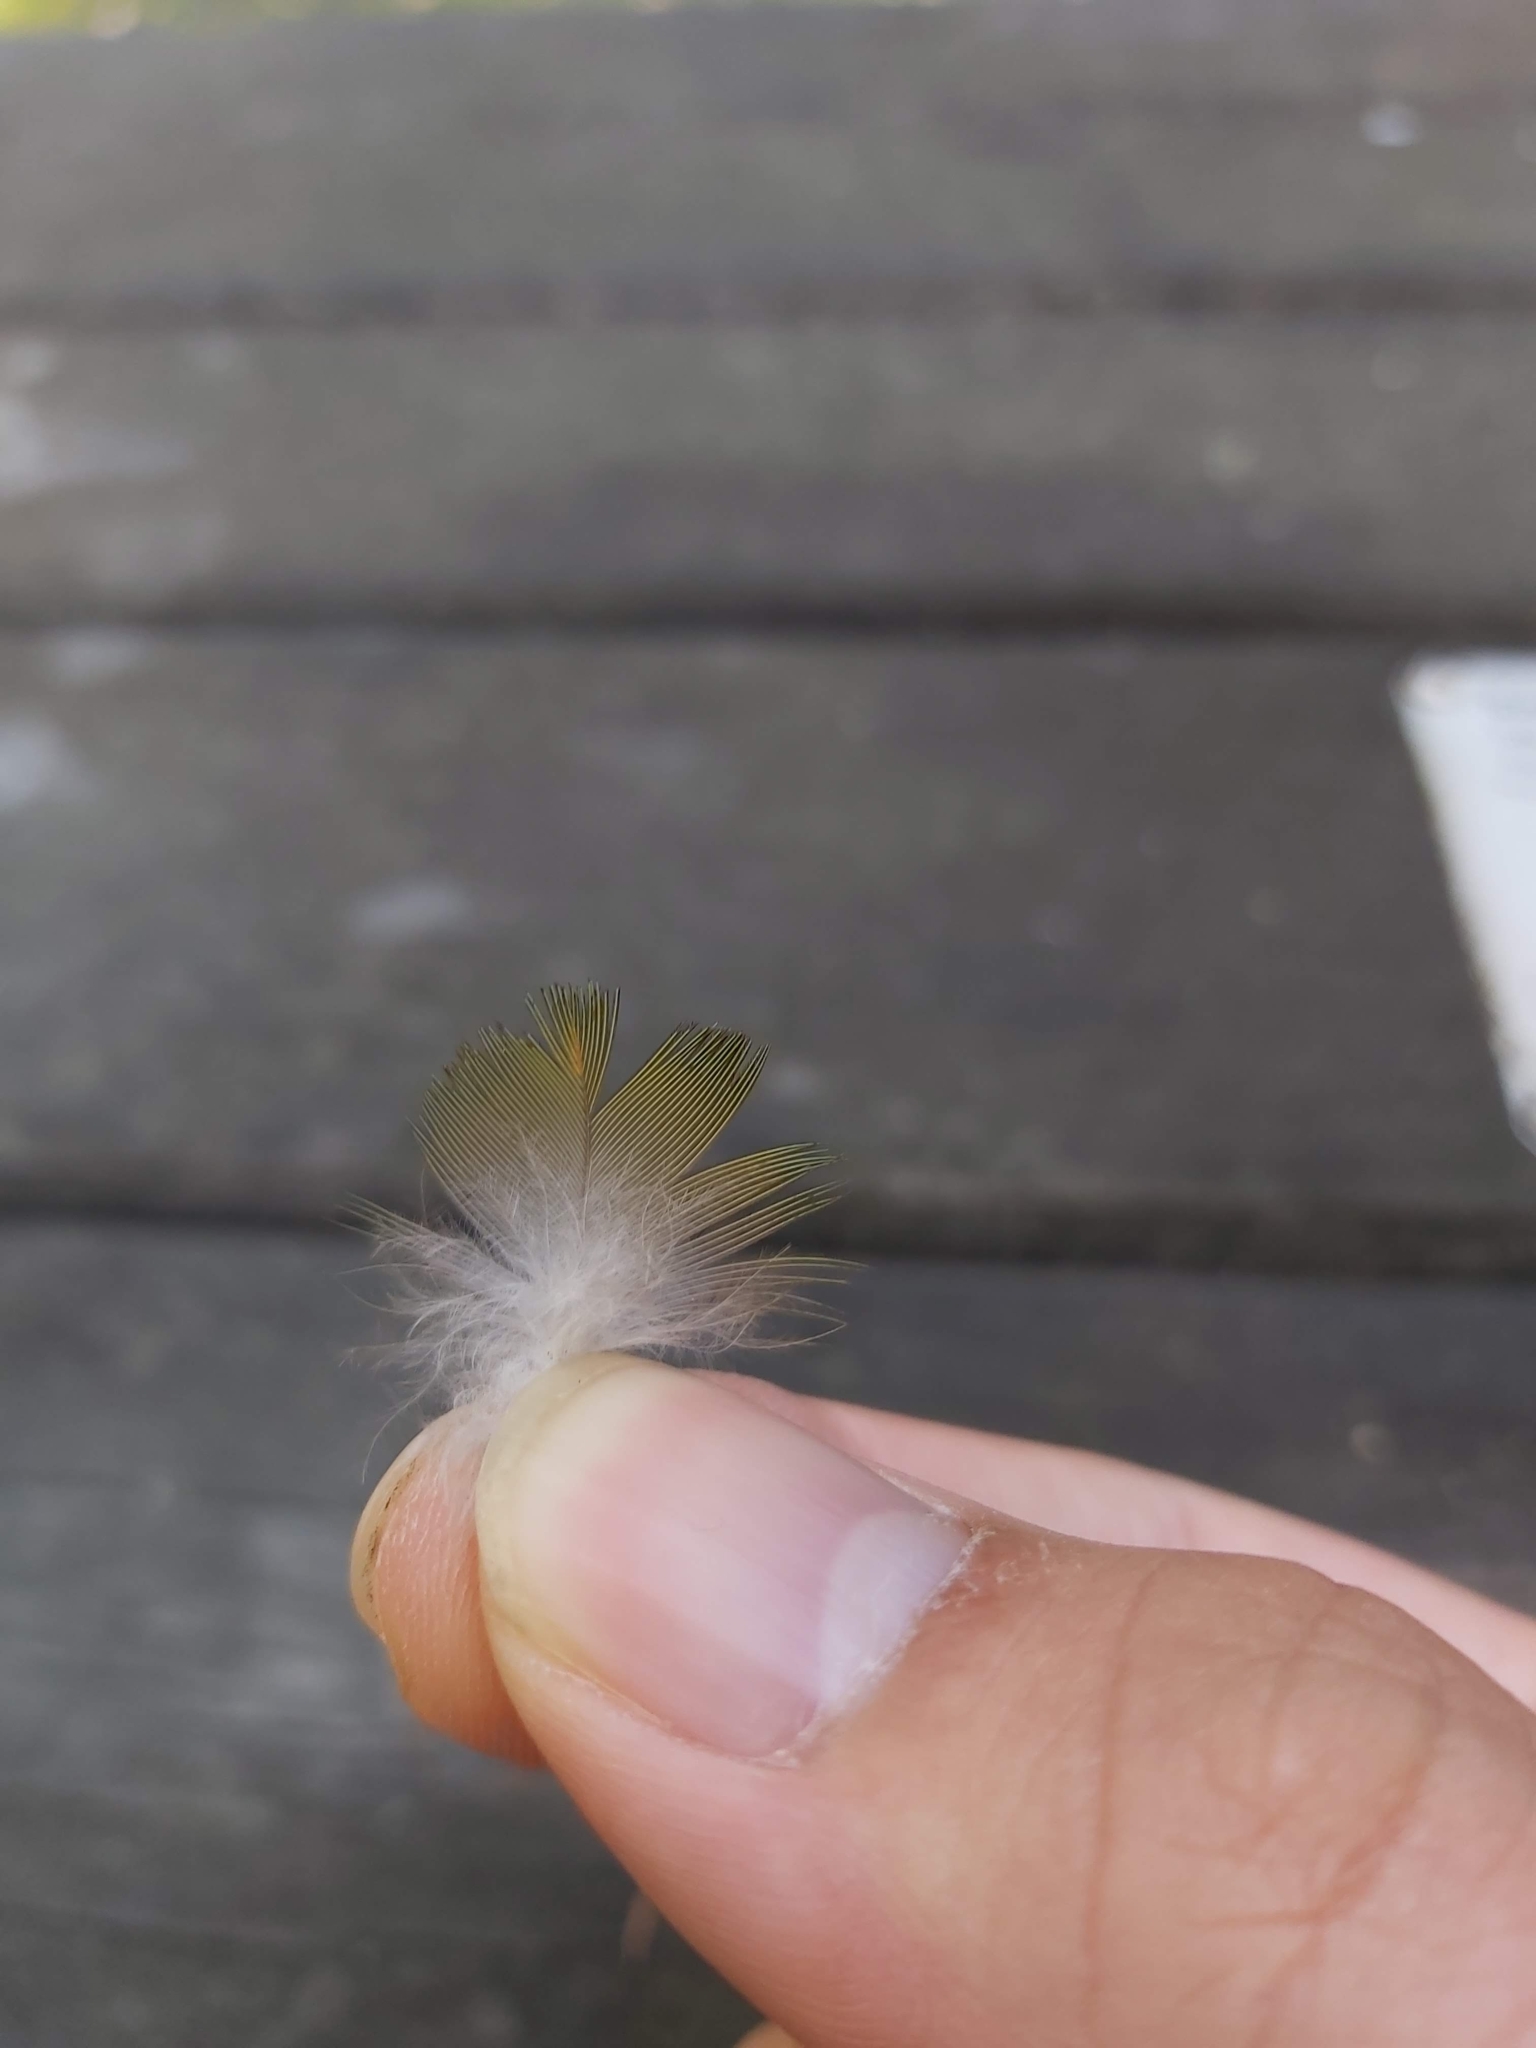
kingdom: Animalia
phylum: Chordata
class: Aves
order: Psittaciformes
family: Psittacidae
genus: Trichoglossus
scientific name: Trichoglossus haematodus
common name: Coconut lorikeet
